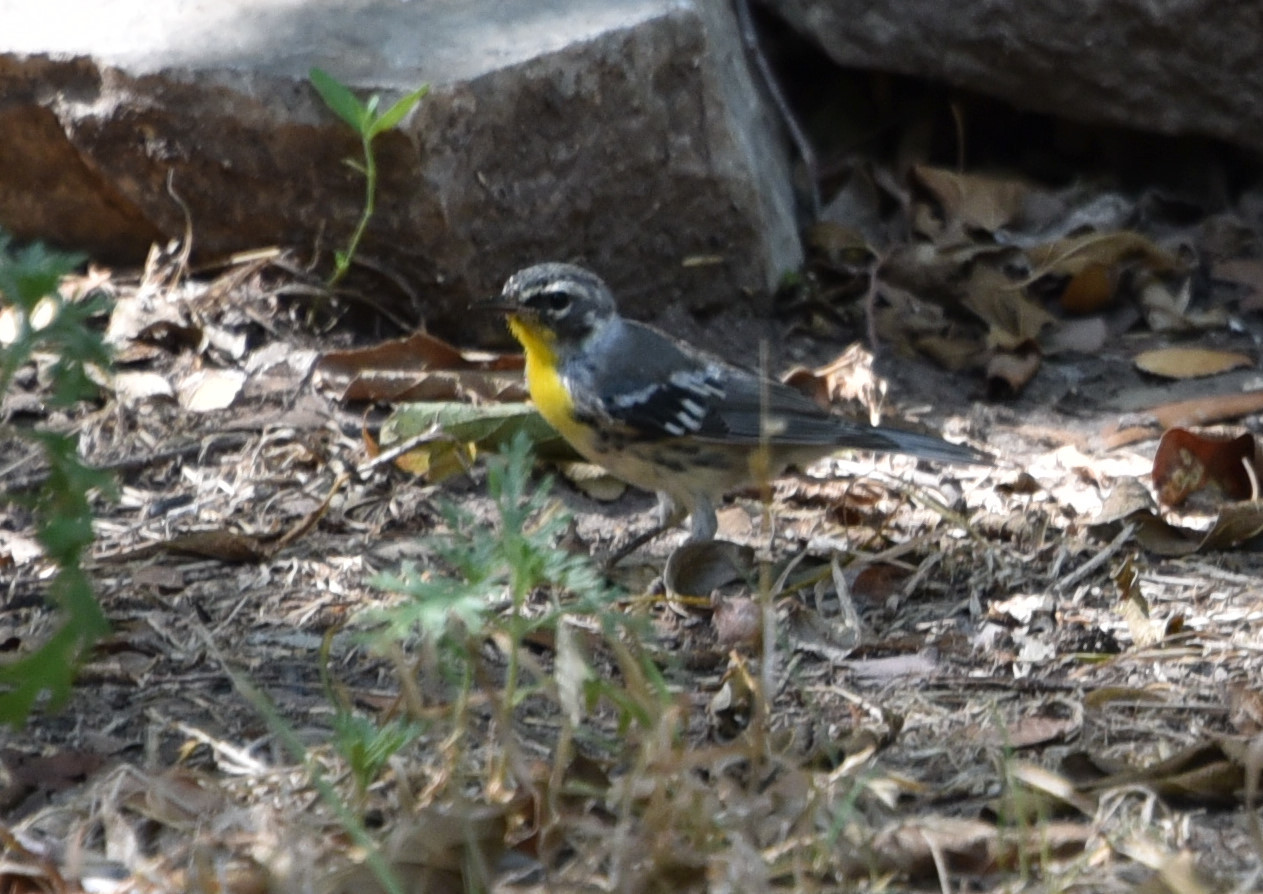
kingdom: Animalia
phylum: Chordata
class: Aves
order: Passeriformes
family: Parulidae
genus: Setophaga
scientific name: Setophaga dominica
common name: Yellow-throated warbler
